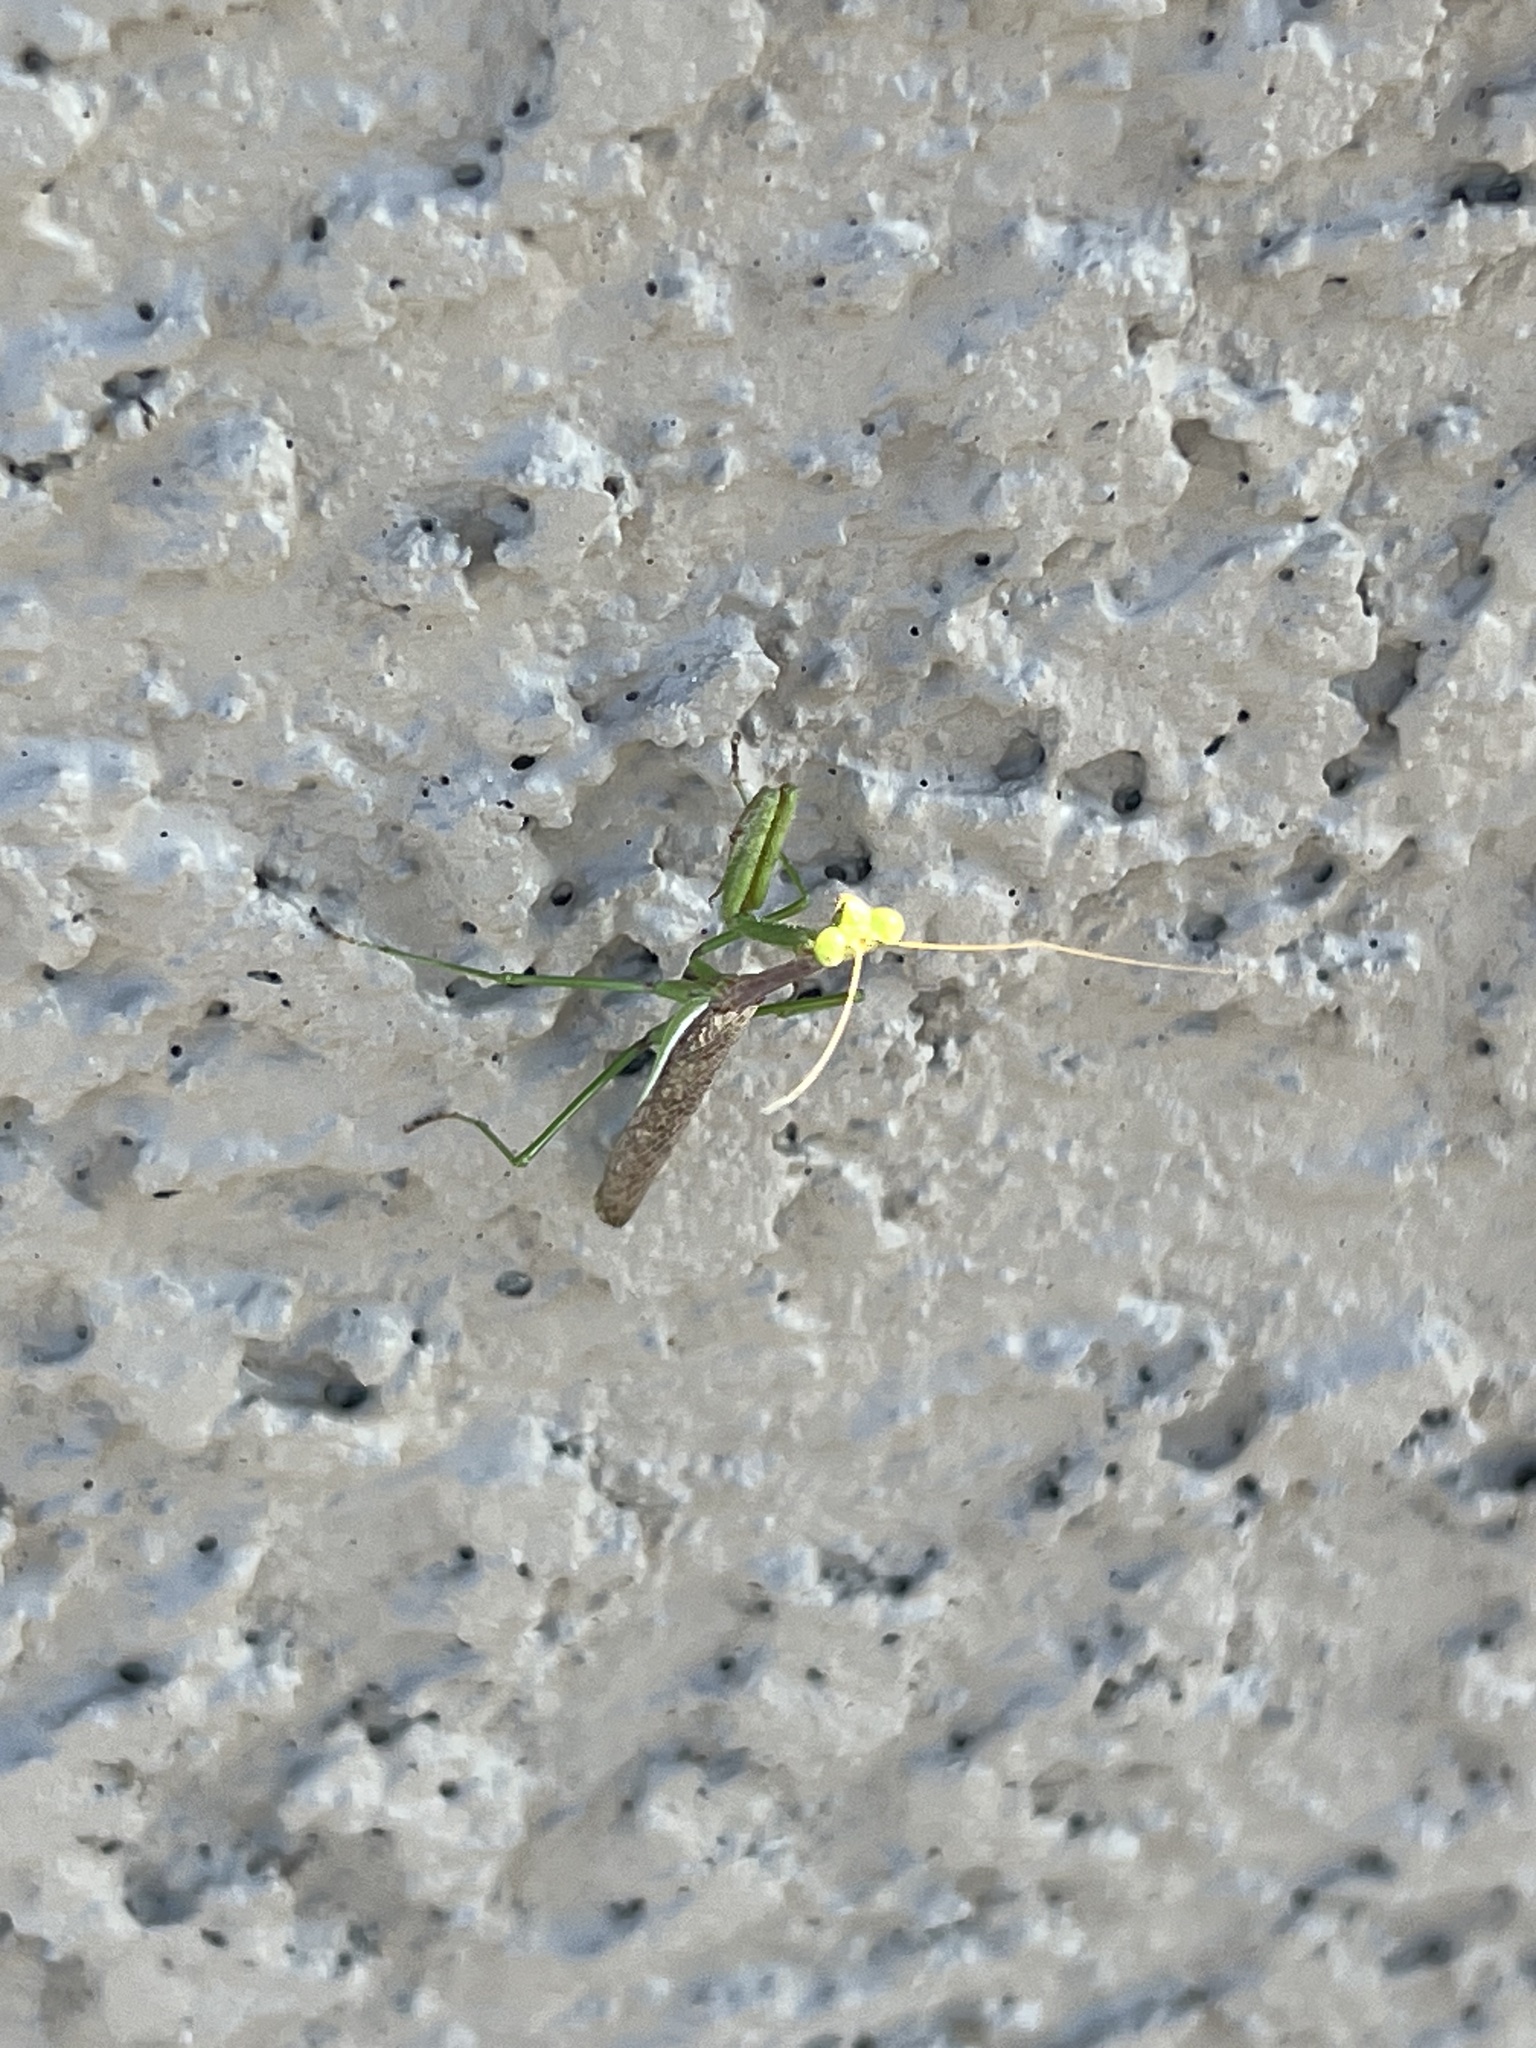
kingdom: Animalia
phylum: Arthropoda
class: Insecta
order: Mantodea
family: Mantidae
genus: Stagmomantis
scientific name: Stagmomantis californica
